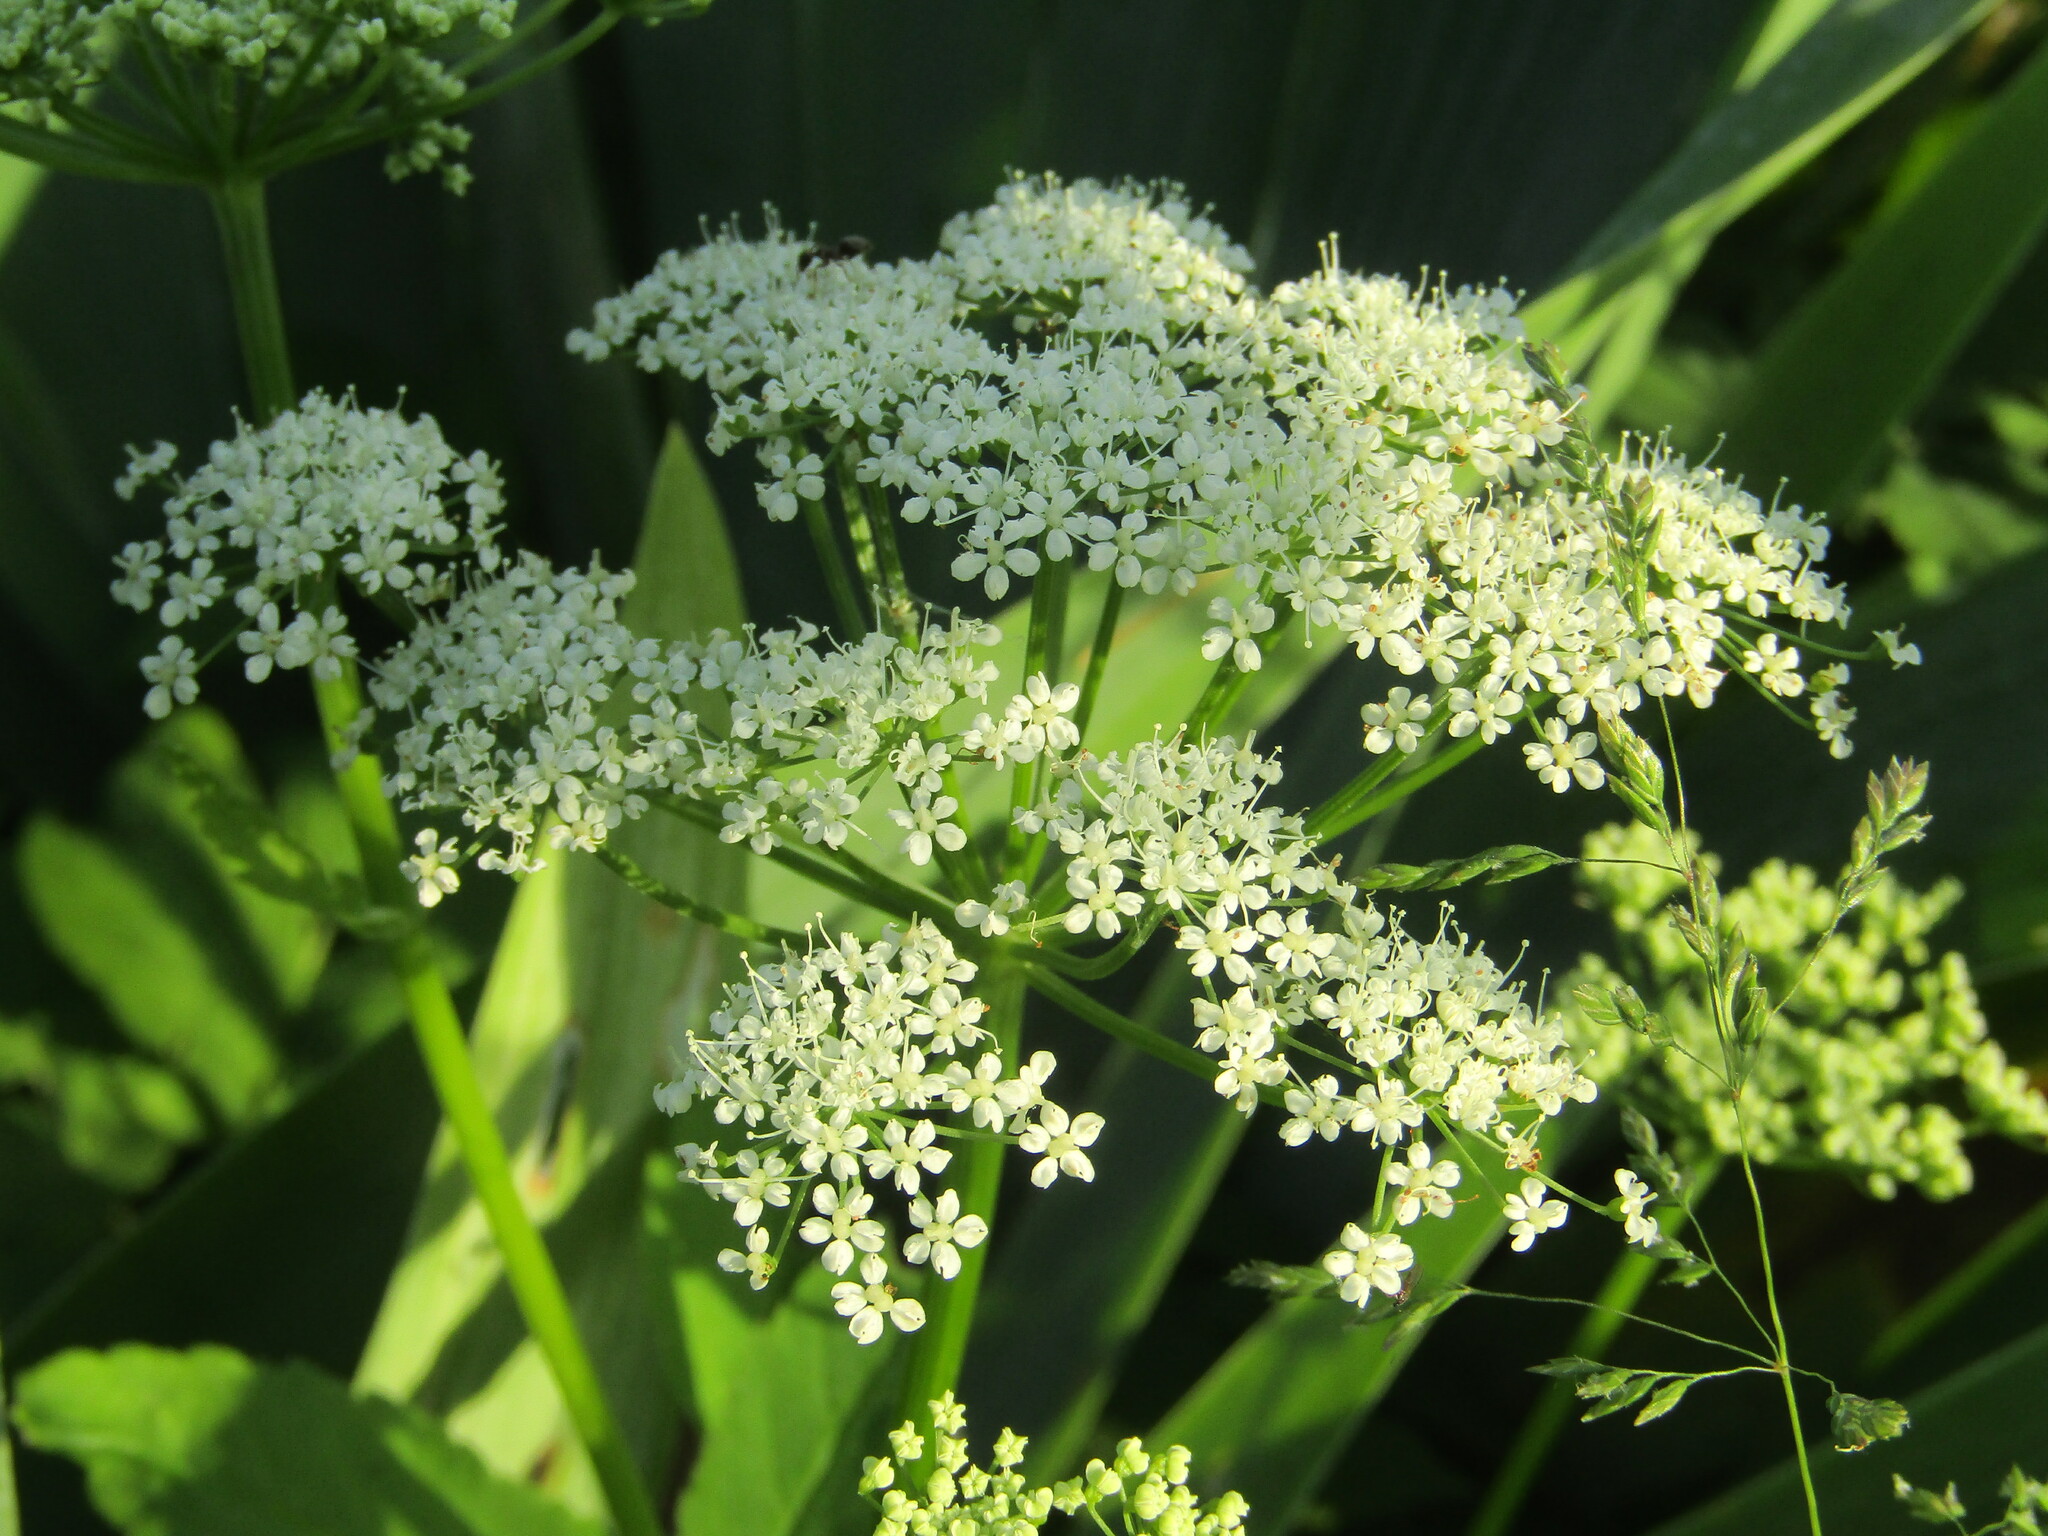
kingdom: Plantae
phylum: Tracheophyta
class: Magnoliopsida
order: Apiales
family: Apiaceae
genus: Aegopodium
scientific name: Aegopodium podagraria
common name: Ground-elder
